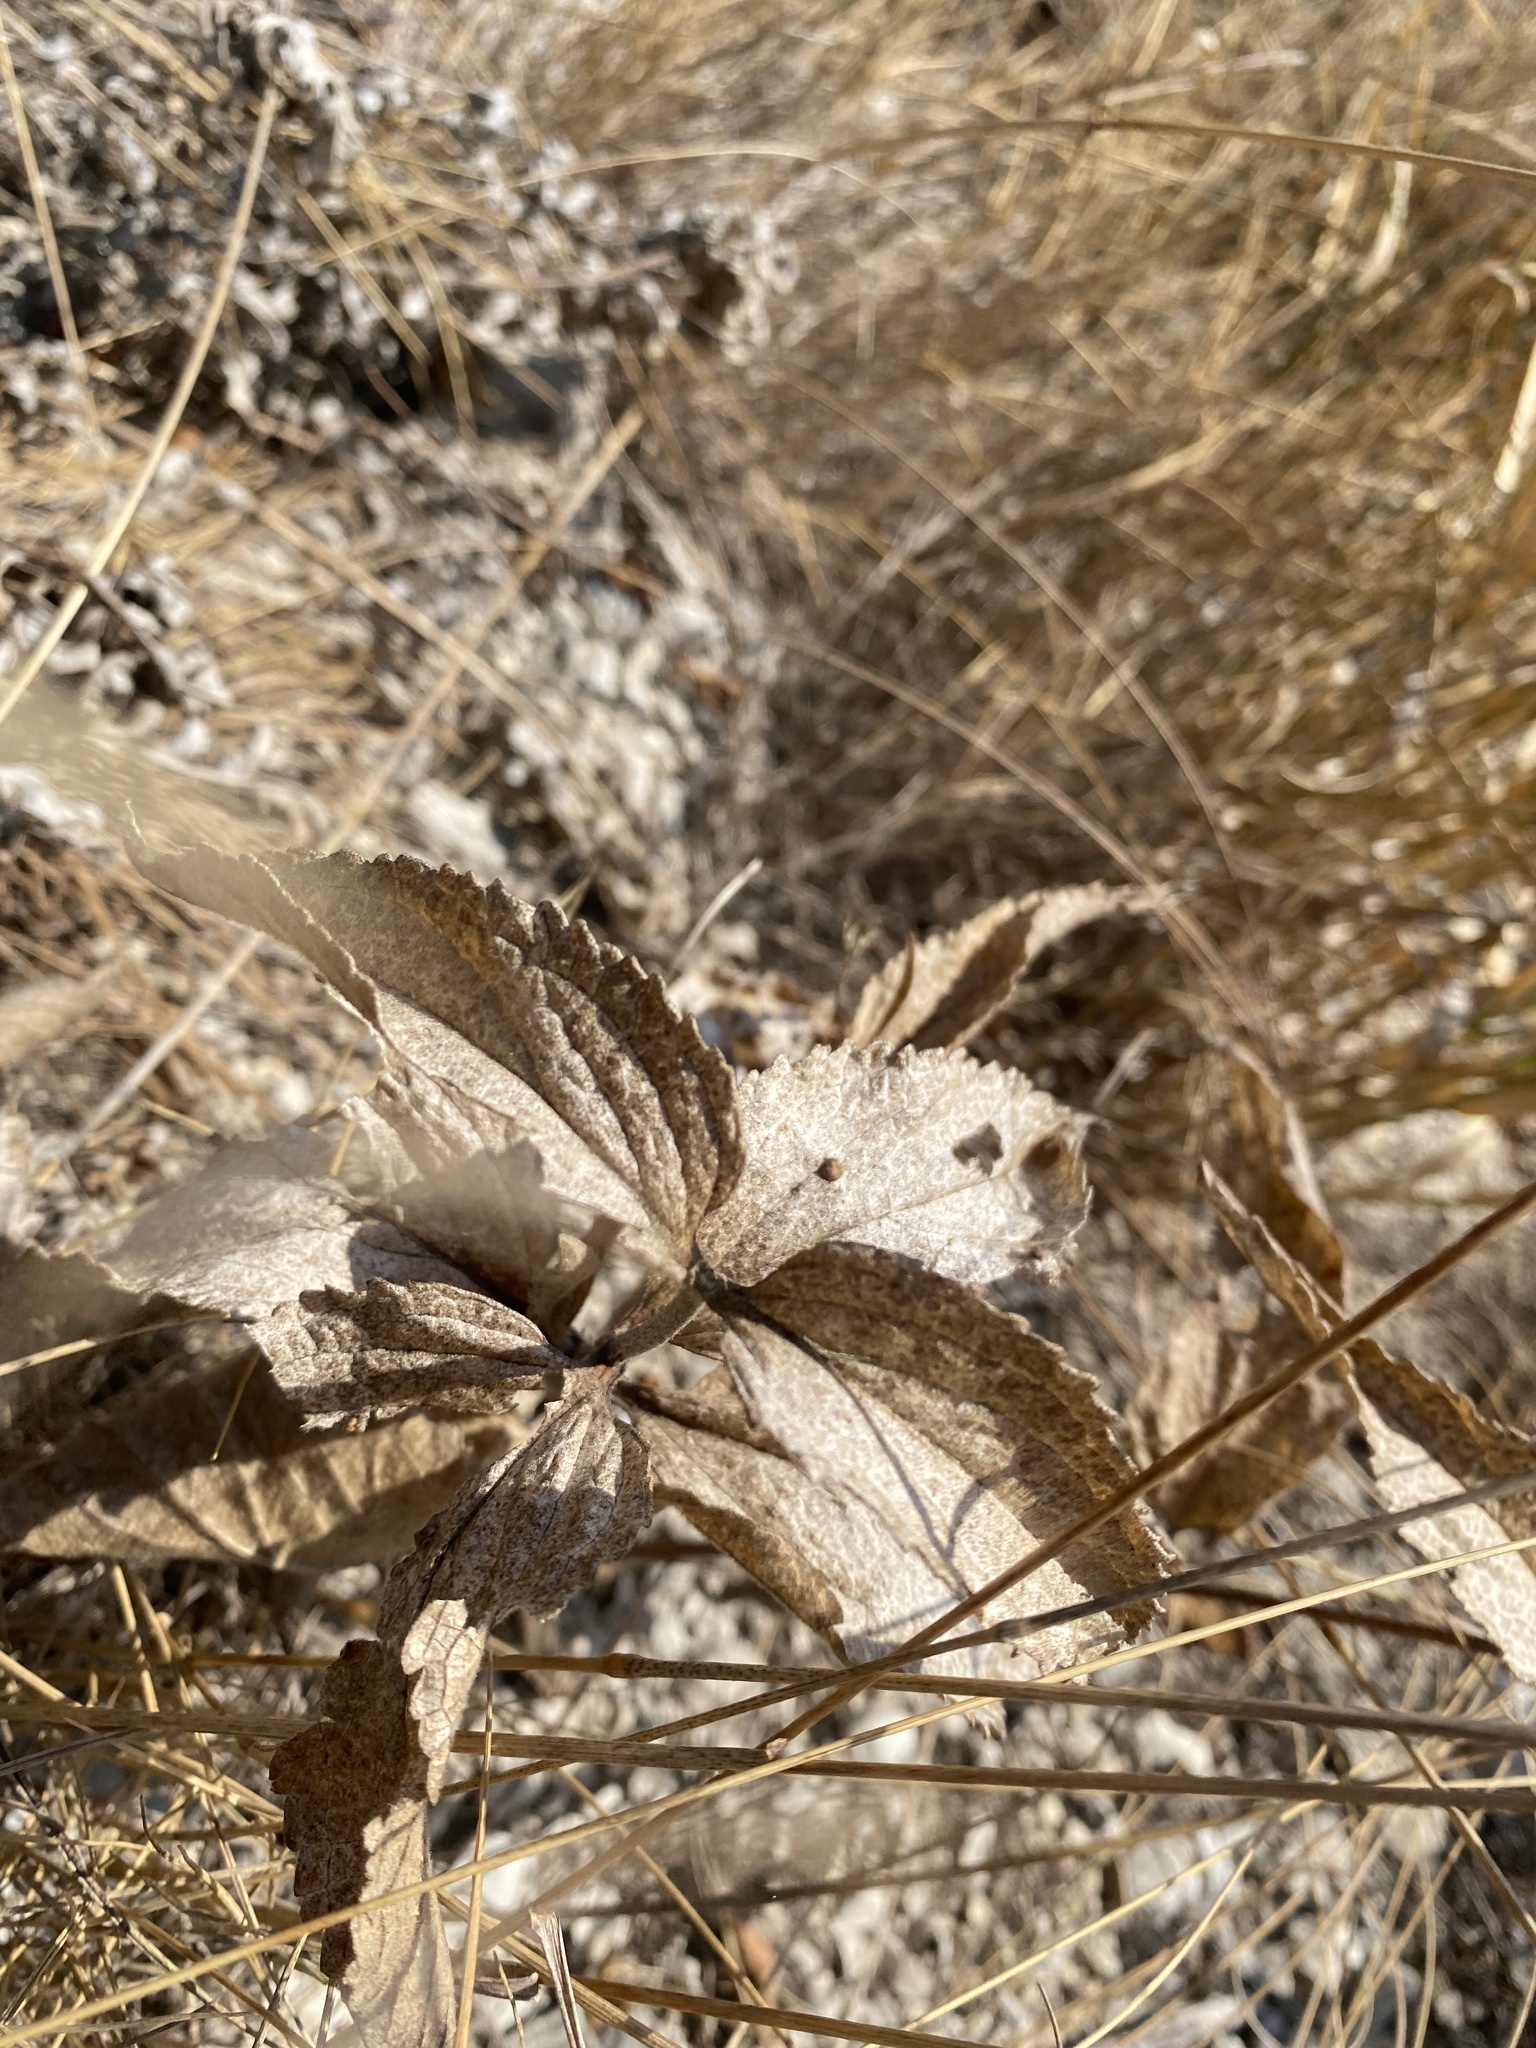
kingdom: Plantae
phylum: Tracheophyta
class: Magnoliopsida
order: Lamiales
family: Lamiaceae
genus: Phlomis
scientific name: Phlomis herba-venti
